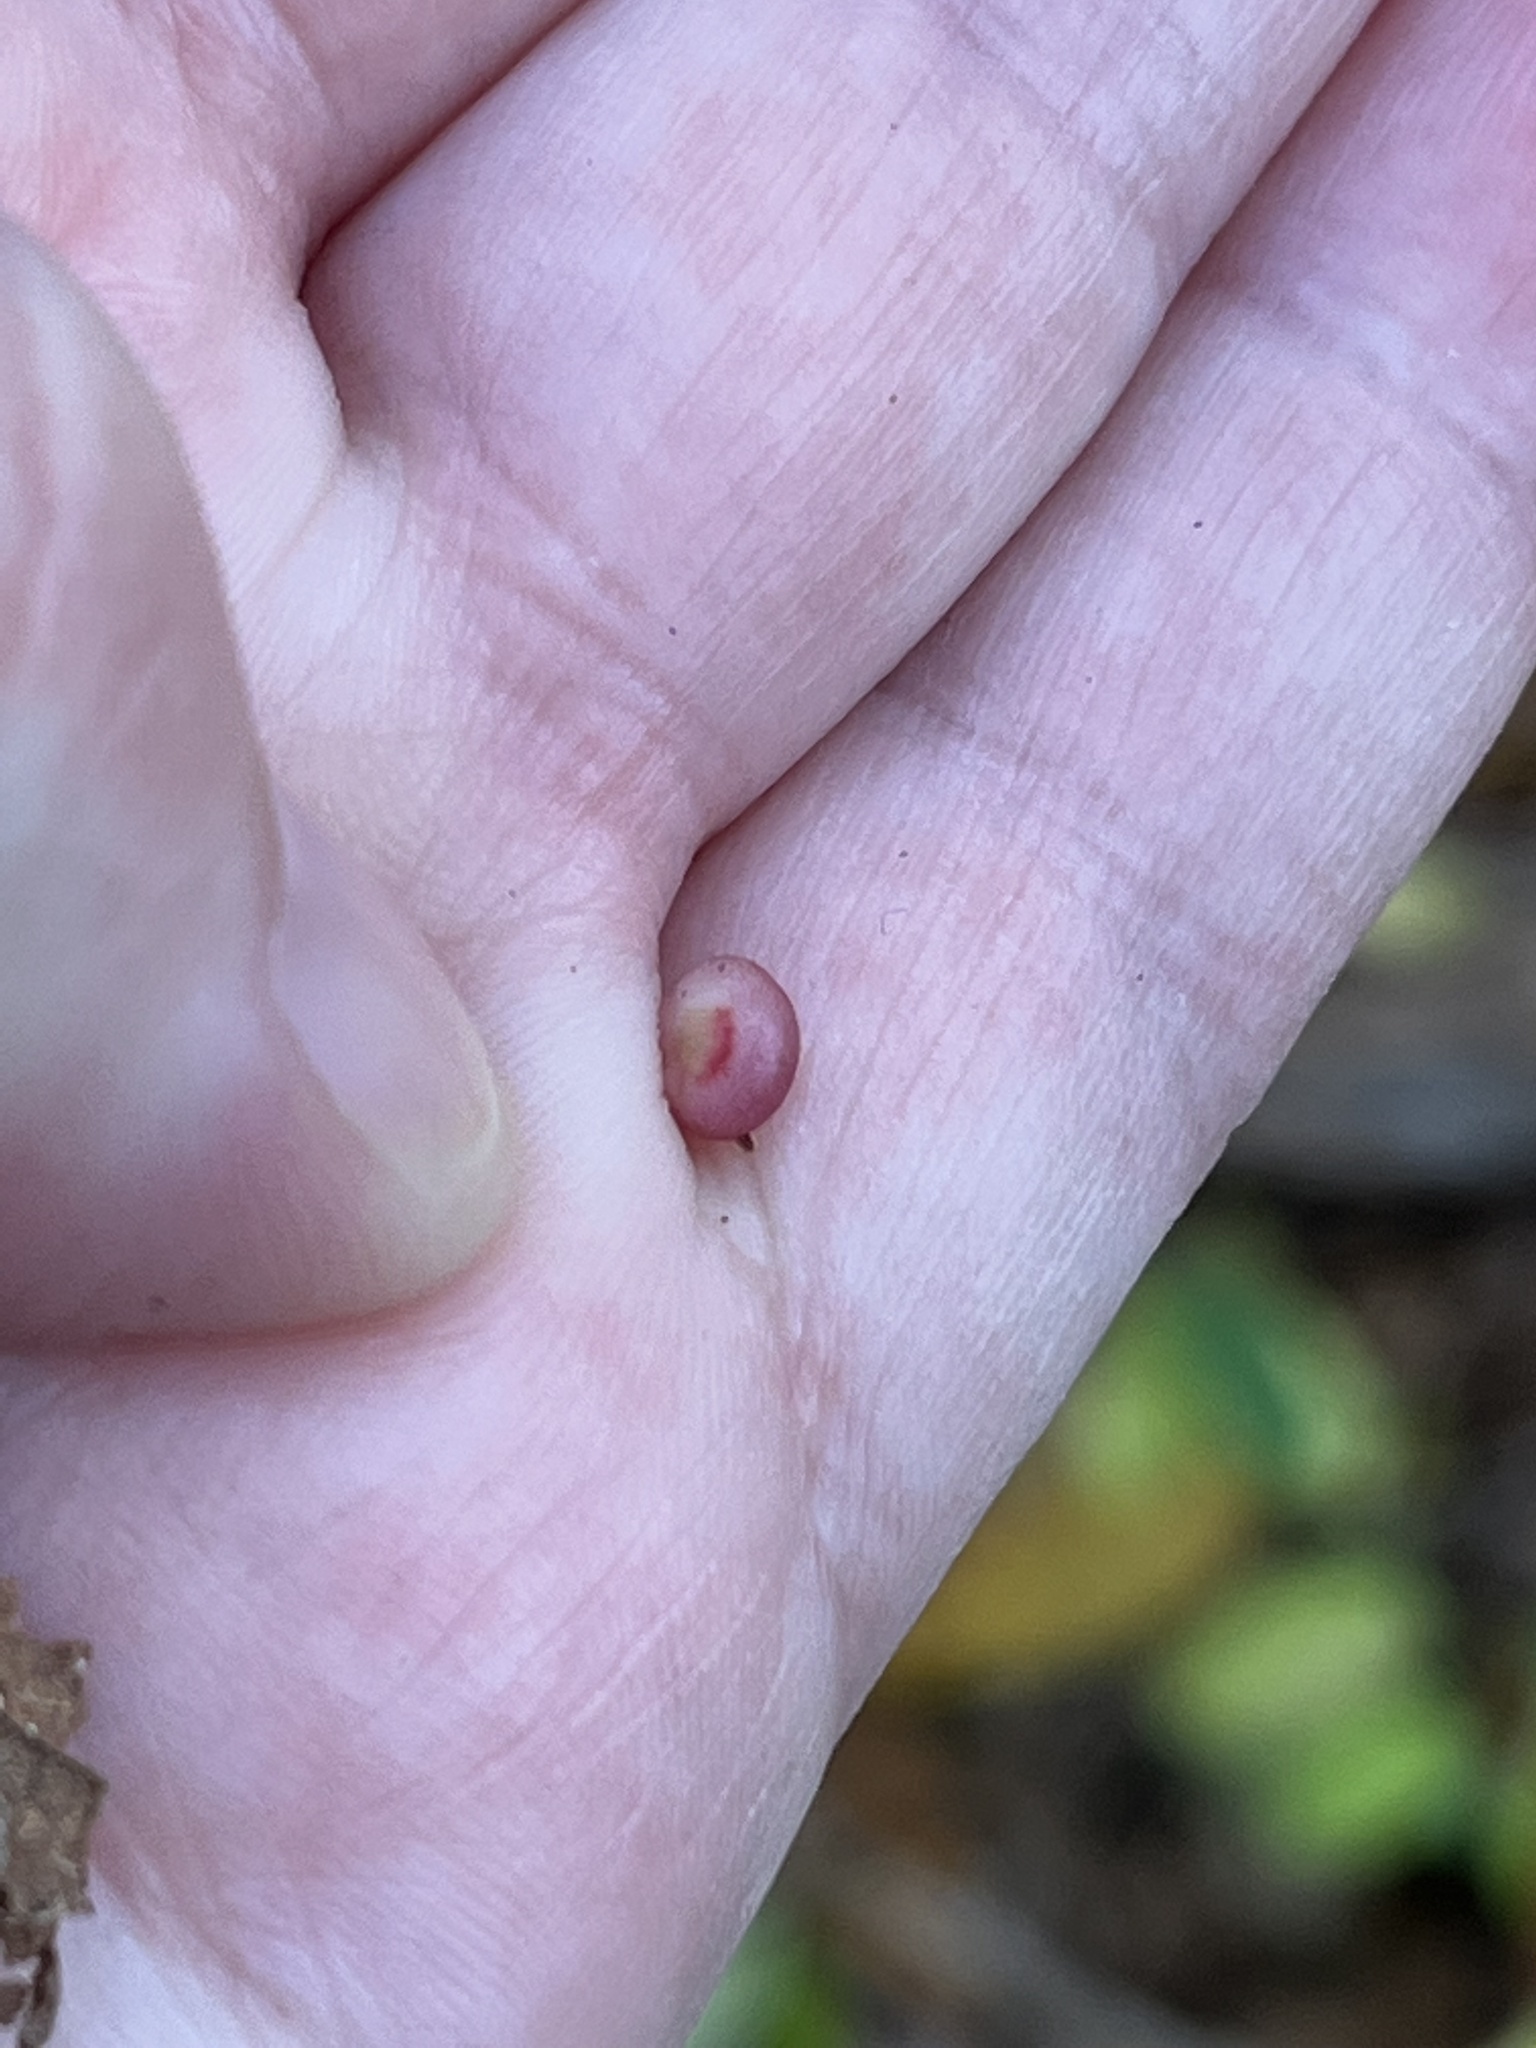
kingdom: Animalia
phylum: Arthropoda
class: Insecta
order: Hymenoptera
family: Cynipidae
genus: Phylloteras
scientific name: Phylloteras
